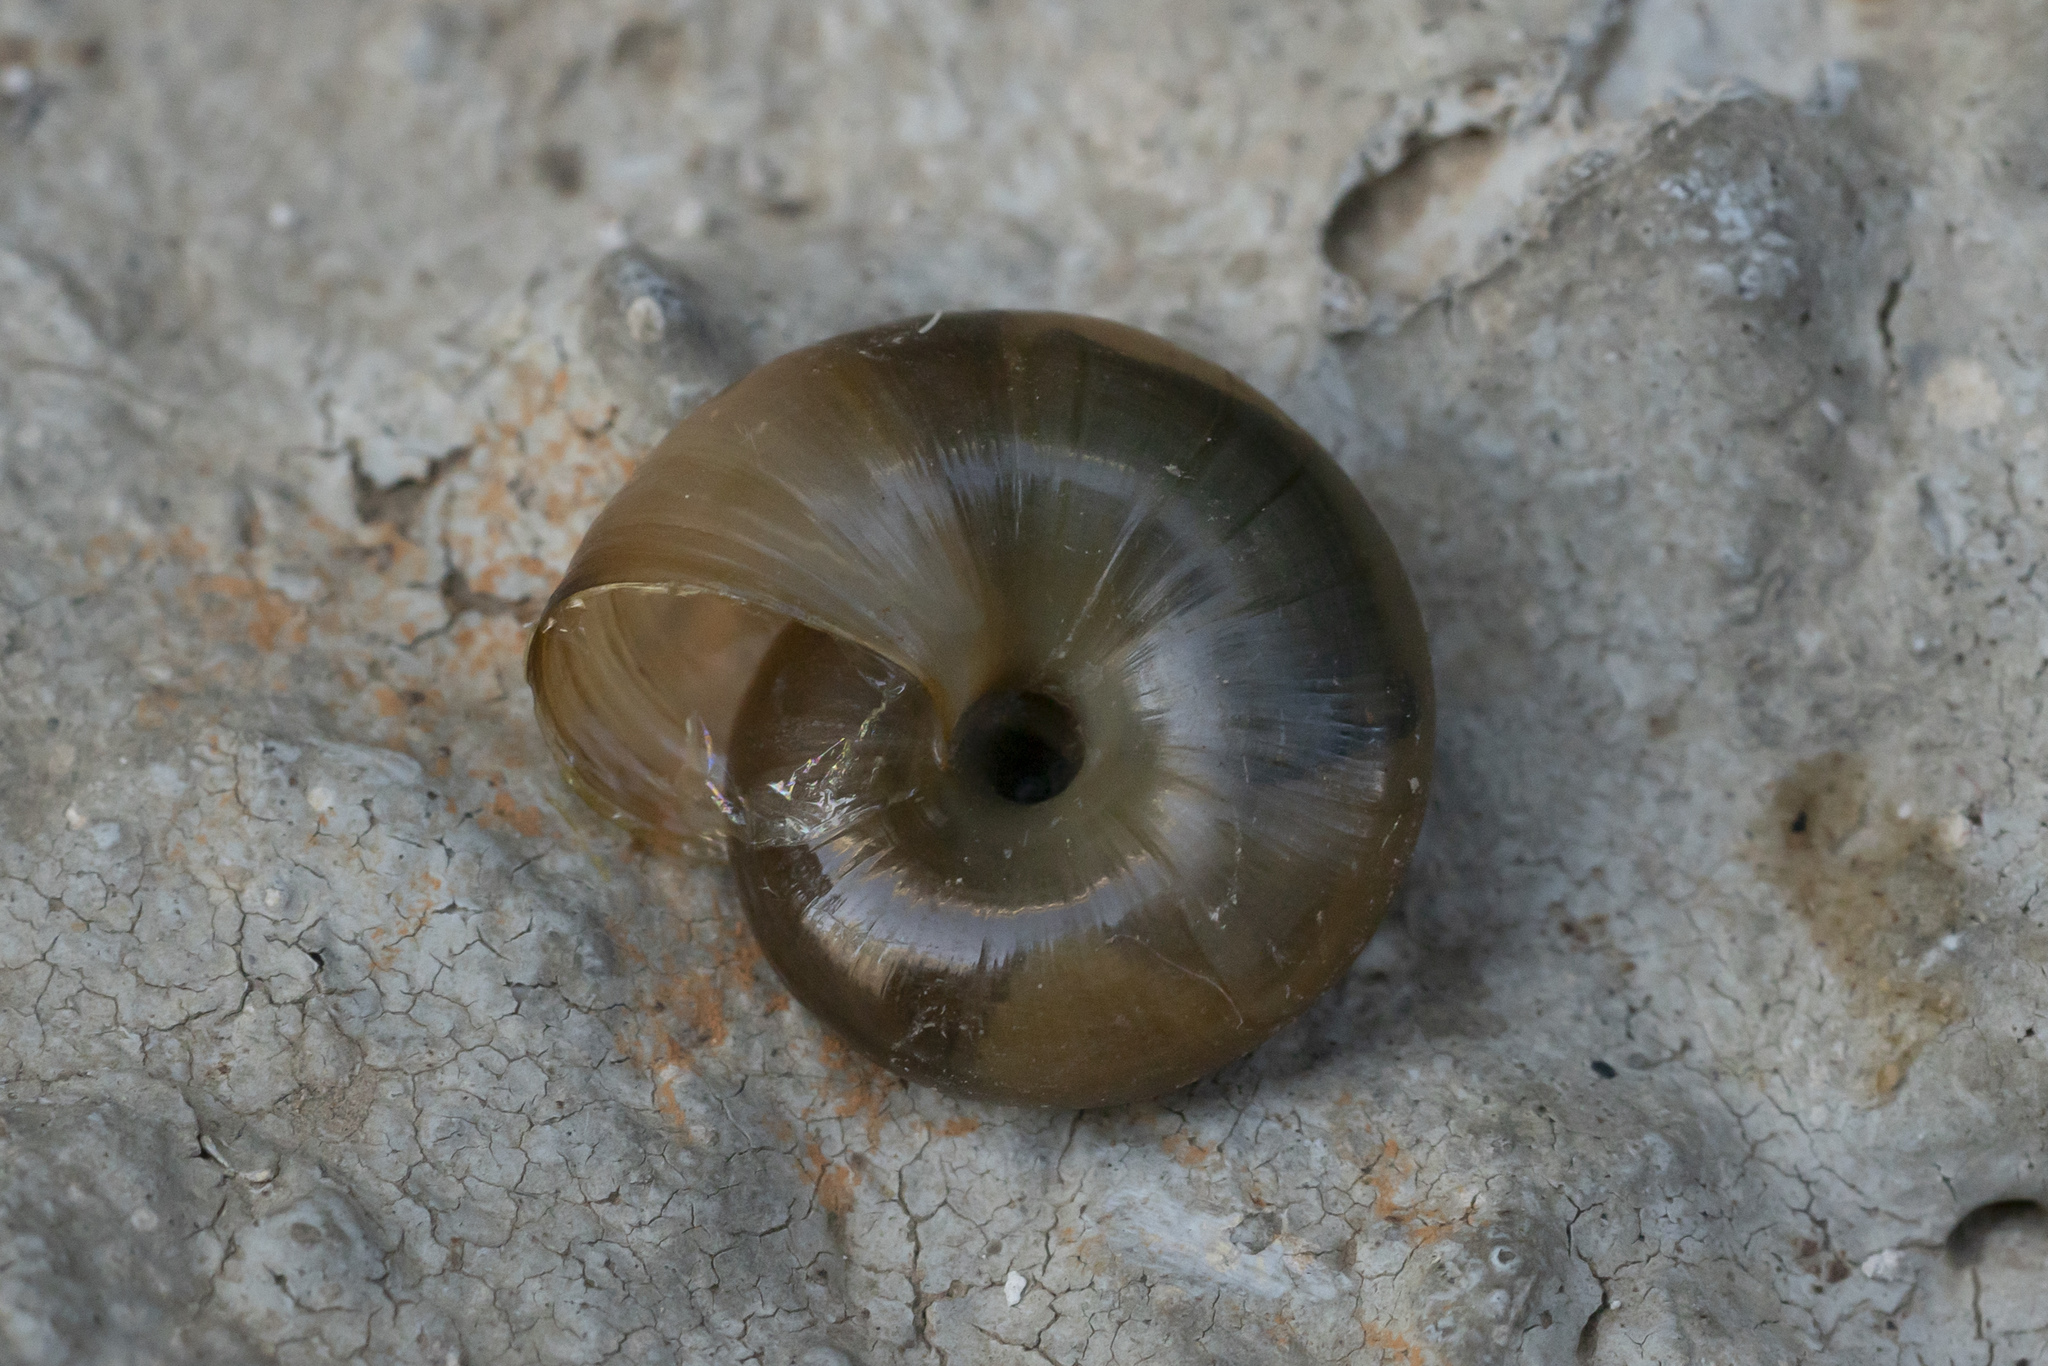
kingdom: Animalia
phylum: Mollusca
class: Gastropoda
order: Stylommatophora
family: Oxychilidae
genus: Oxychilus
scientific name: Oxychilus cyprius
